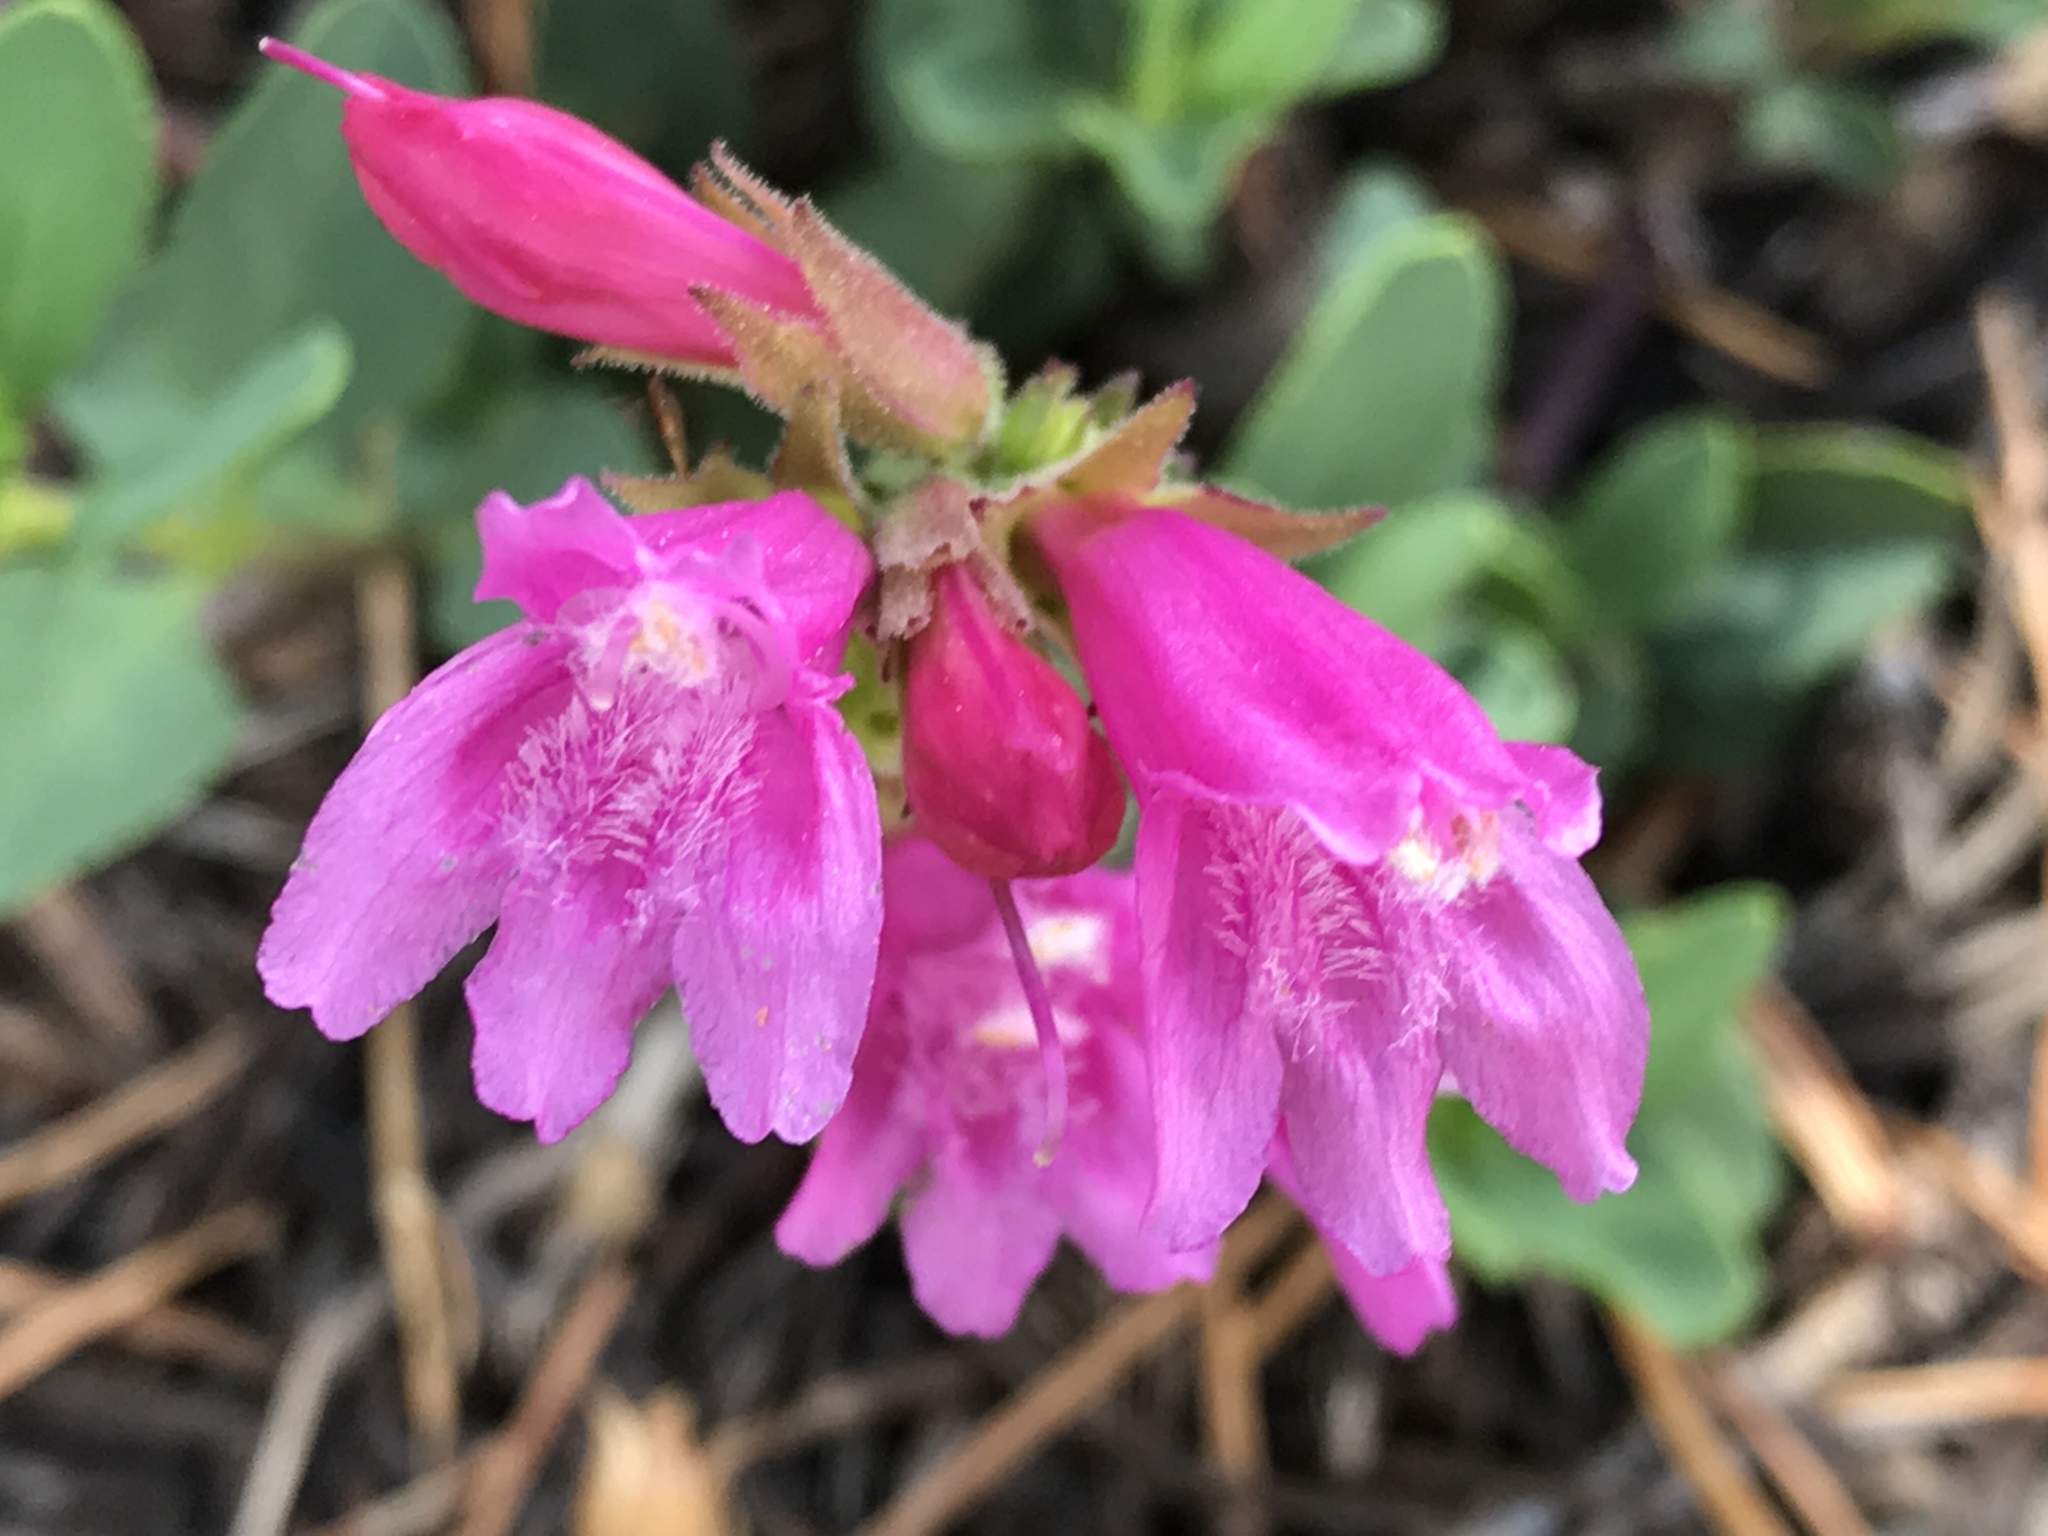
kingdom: Plantae
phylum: Tracheophyta
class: Magnoliopsida
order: Lamiales
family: Plantaginaceae
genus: Penstemon
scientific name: Penstemon newberryi
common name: Mountain-pride
